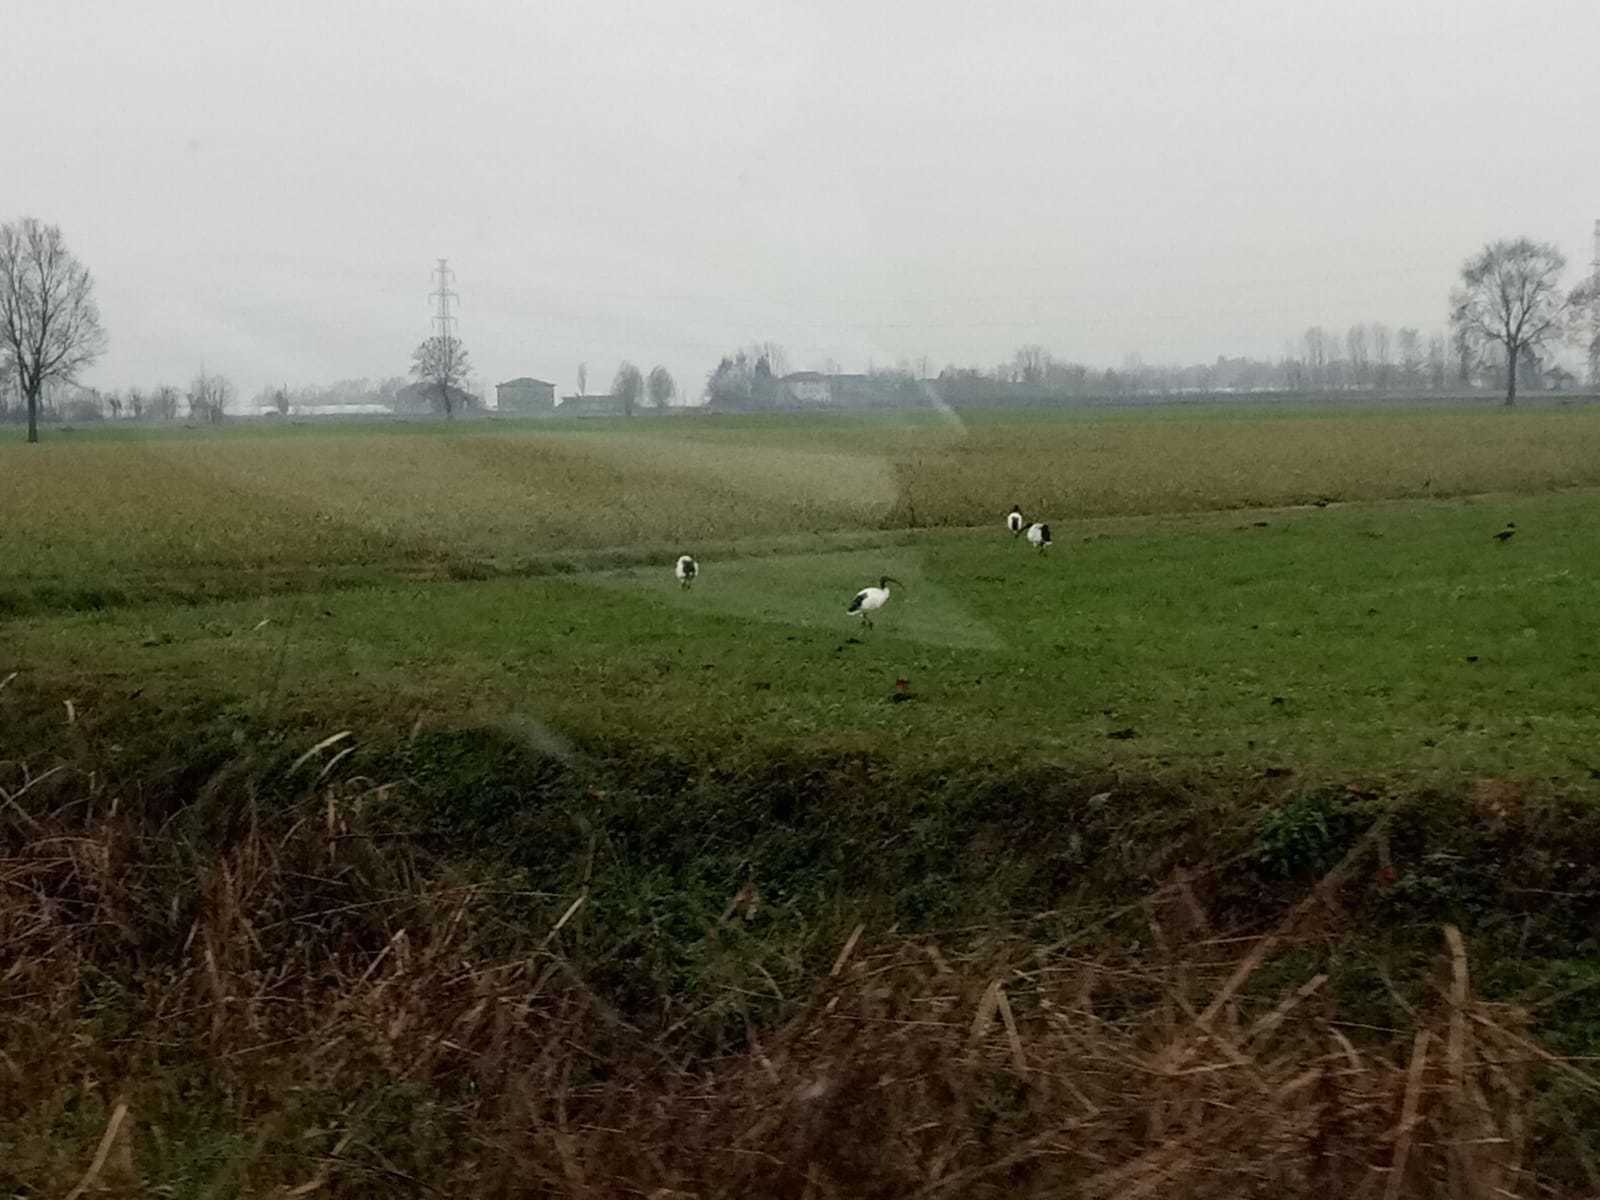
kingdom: Animalia
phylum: Chordata
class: Aves
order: Pelecaniformes
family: Threskiornithidae
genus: Threskiornis
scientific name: Threskiornis aethiopicus
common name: Sacred ibis
